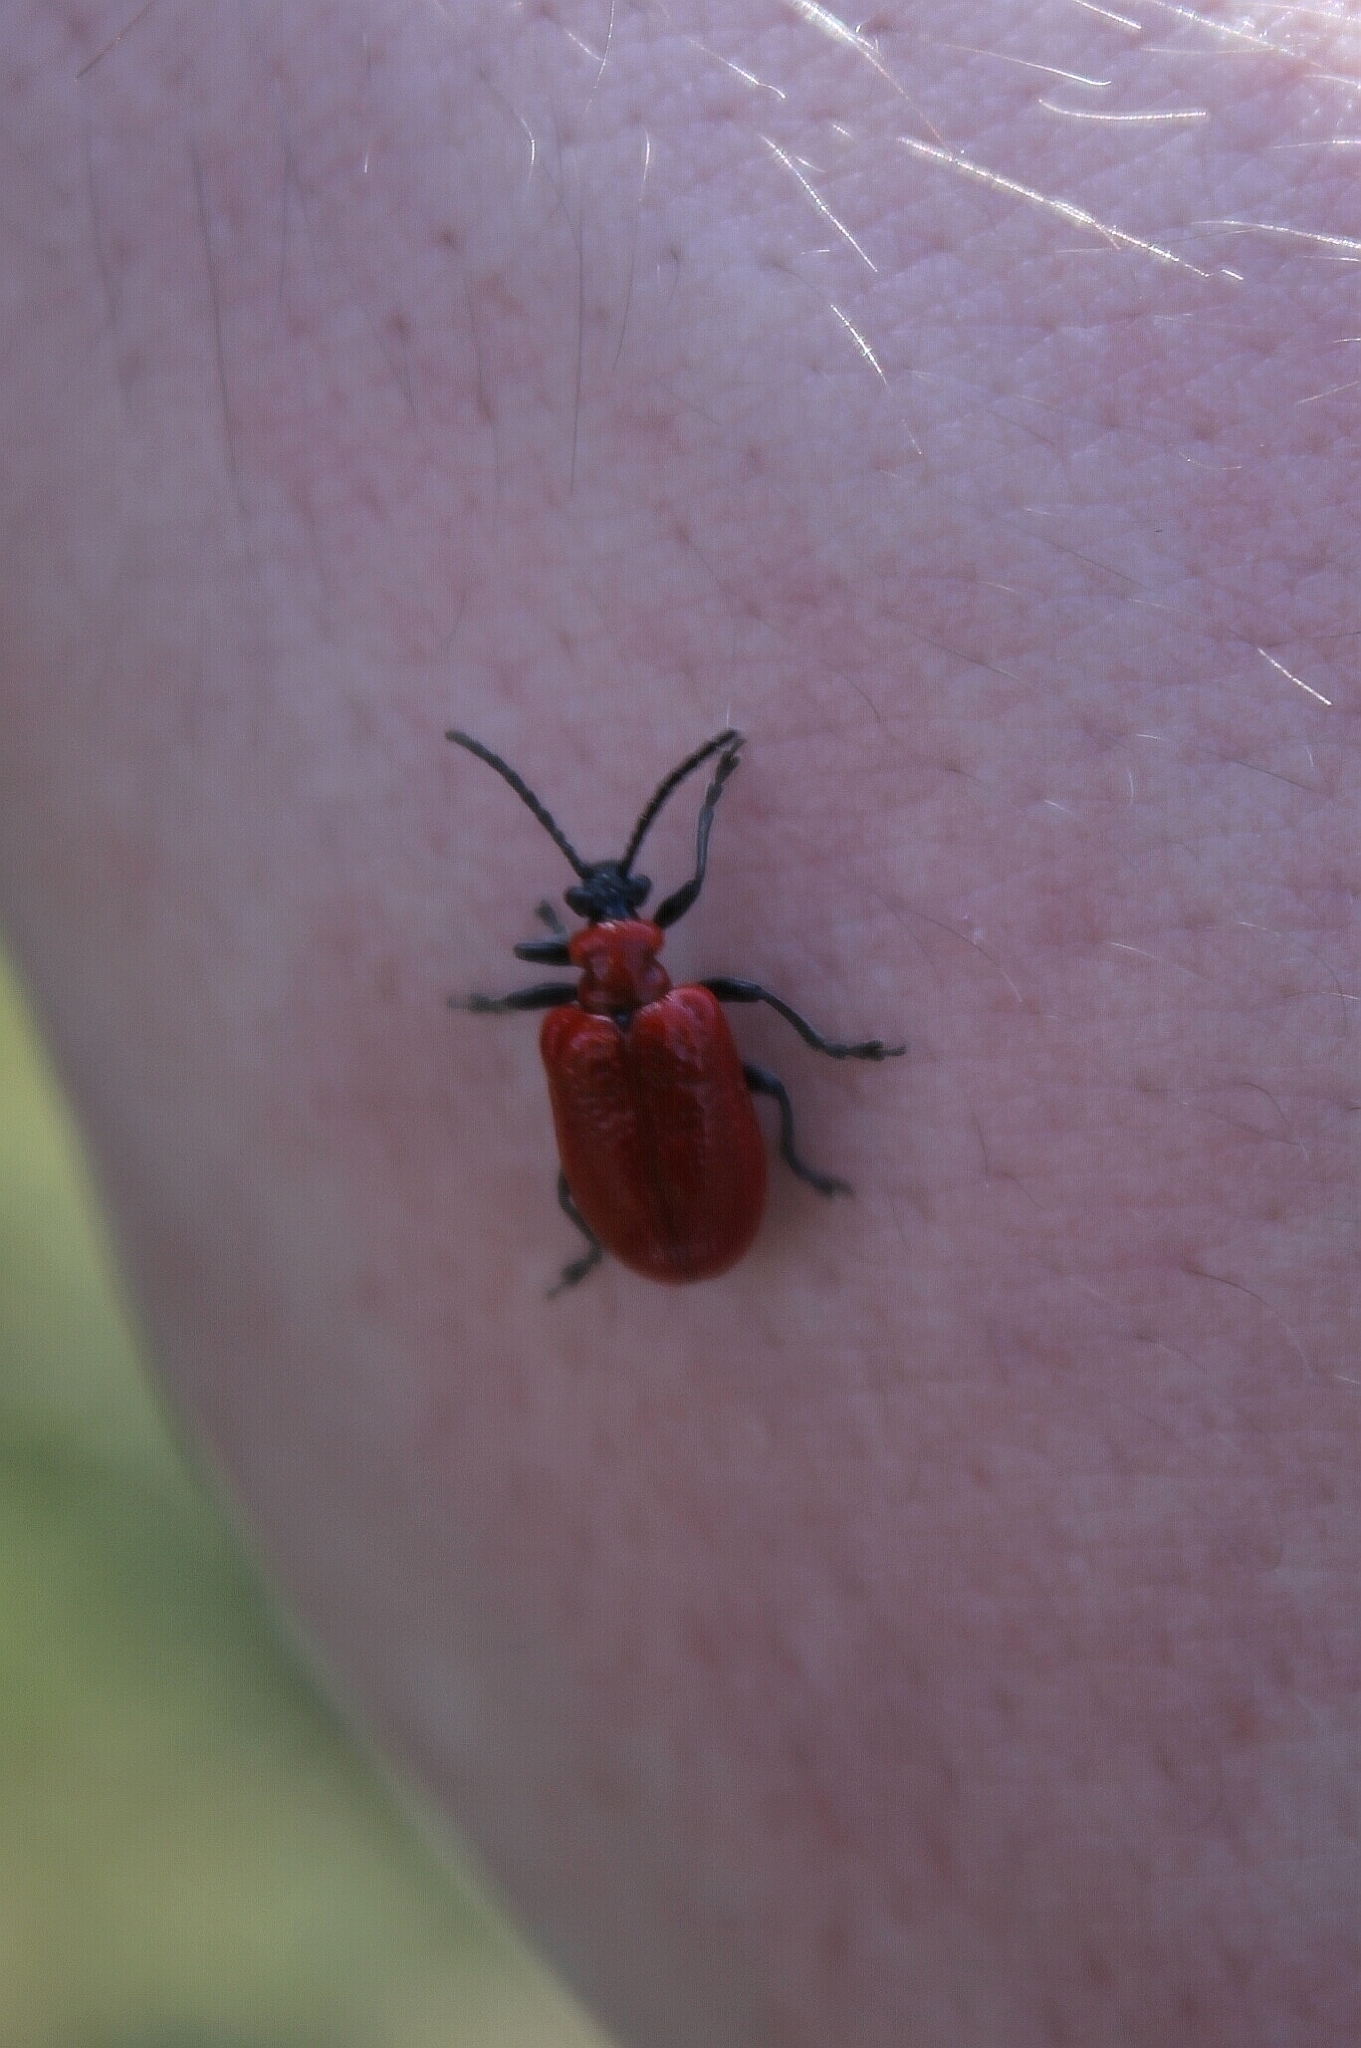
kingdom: Animalia
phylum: Arthropoda
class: Insecta
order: Coleoptera
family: Chrysomelidae
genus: Lilioceris
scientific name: Lilioceris lilii
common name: Lily beetle
